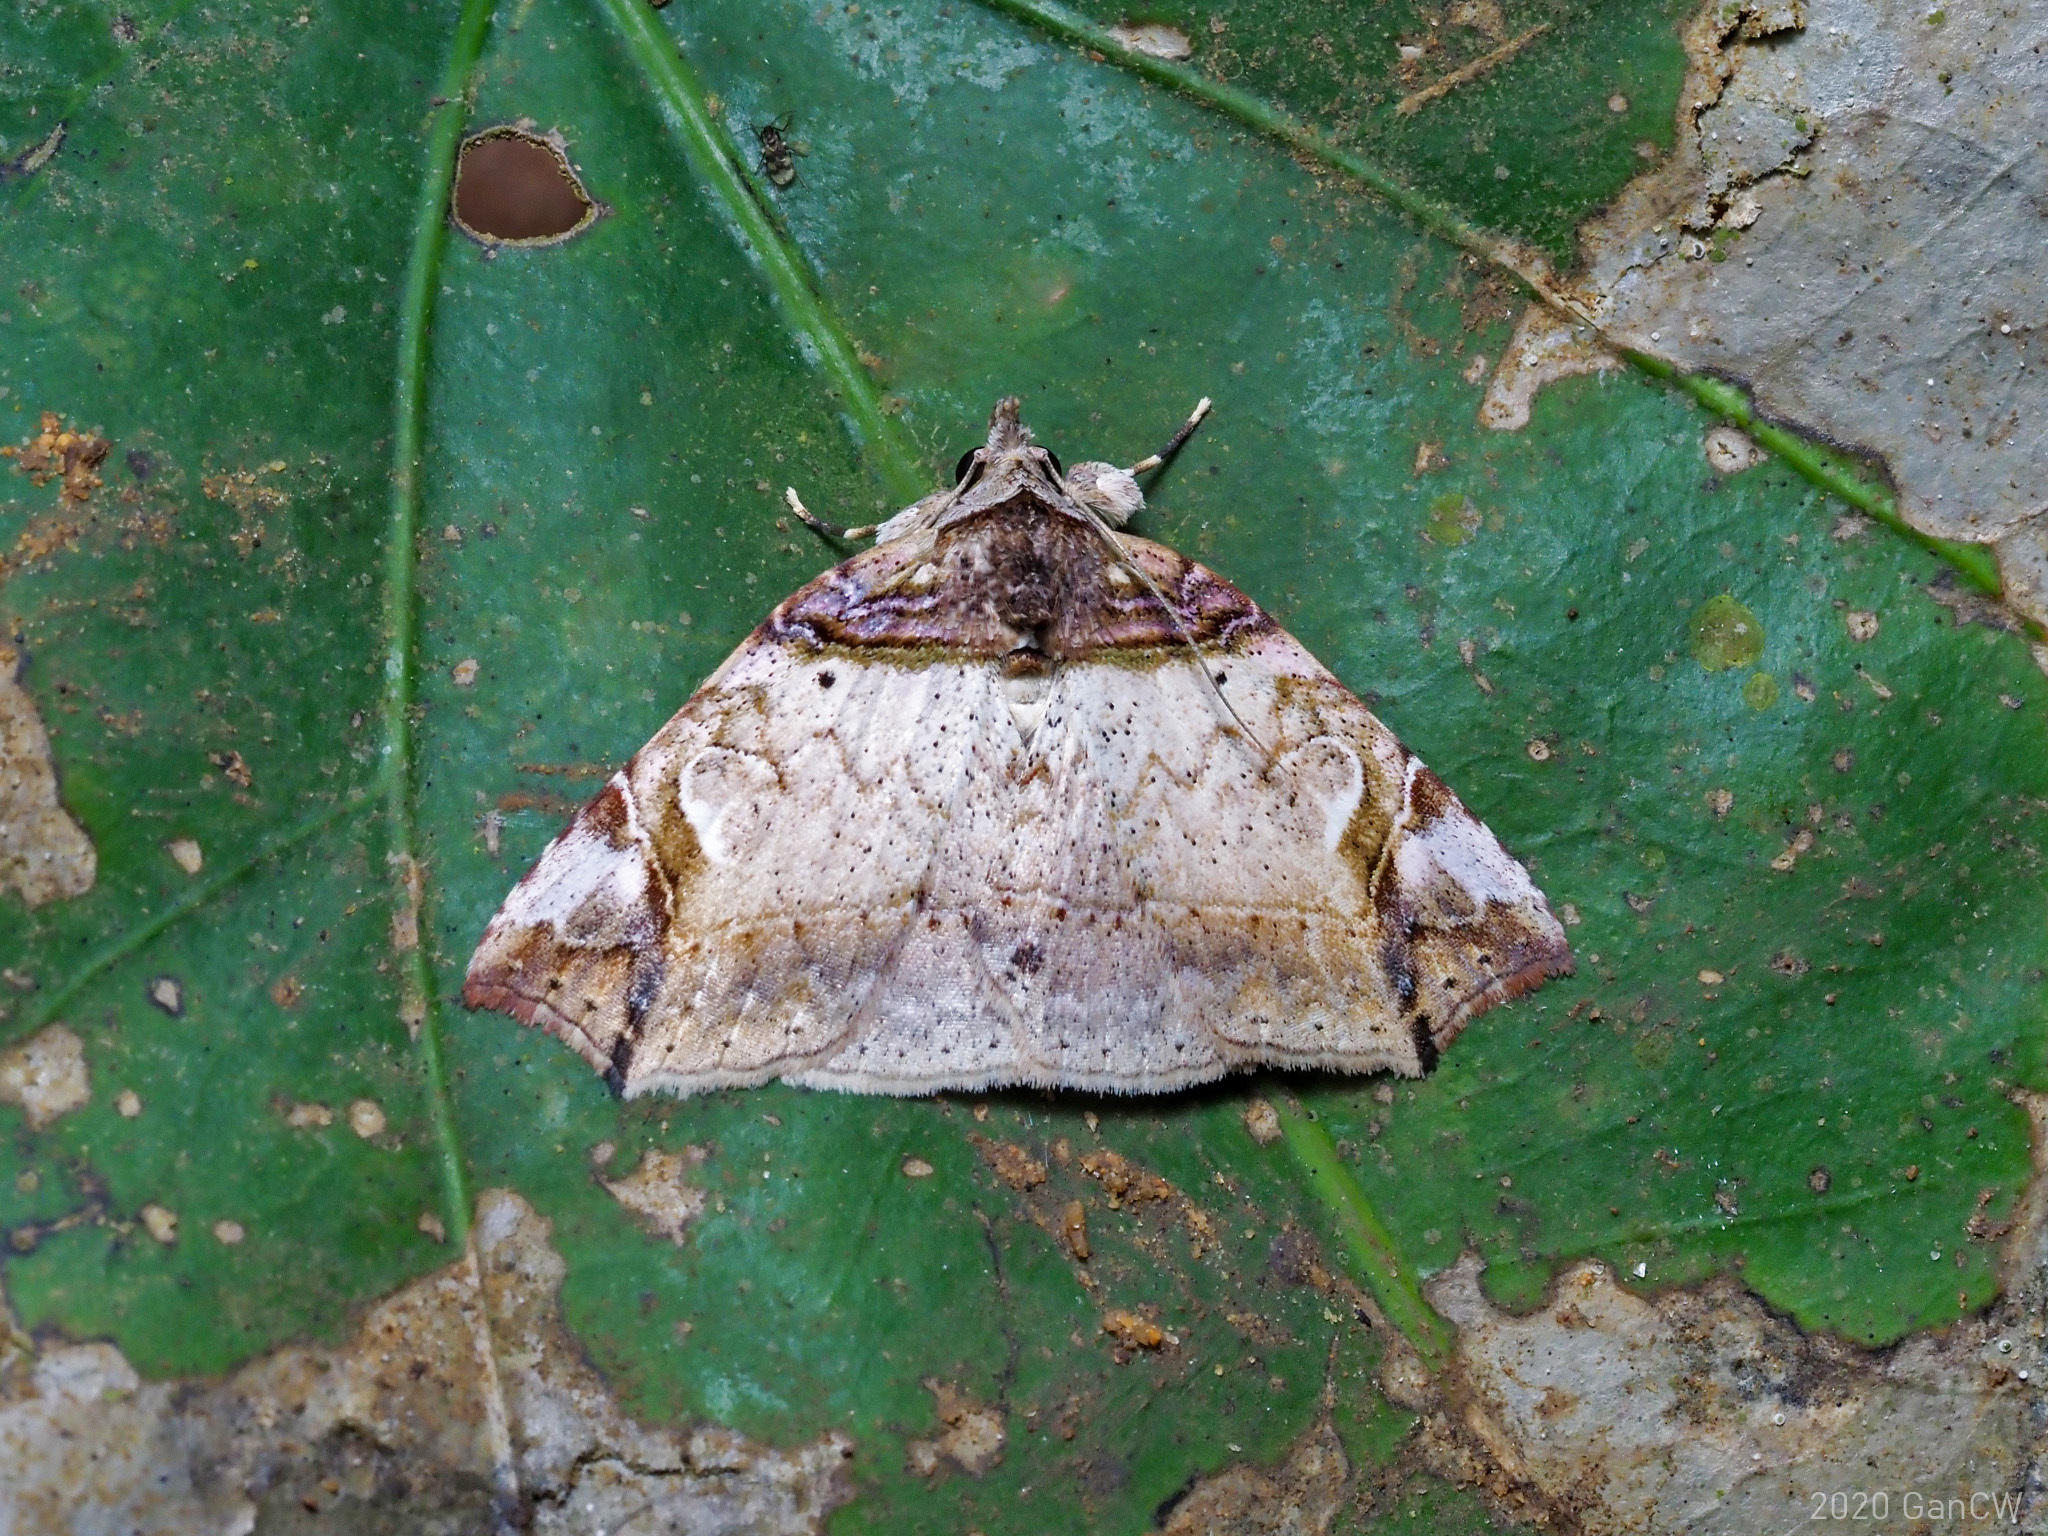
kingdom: Animalia
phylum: Arthropoda
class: Insecta
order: Lepidoptera
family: Erebidae
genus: Tamba
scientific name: Tamba basiscripta
